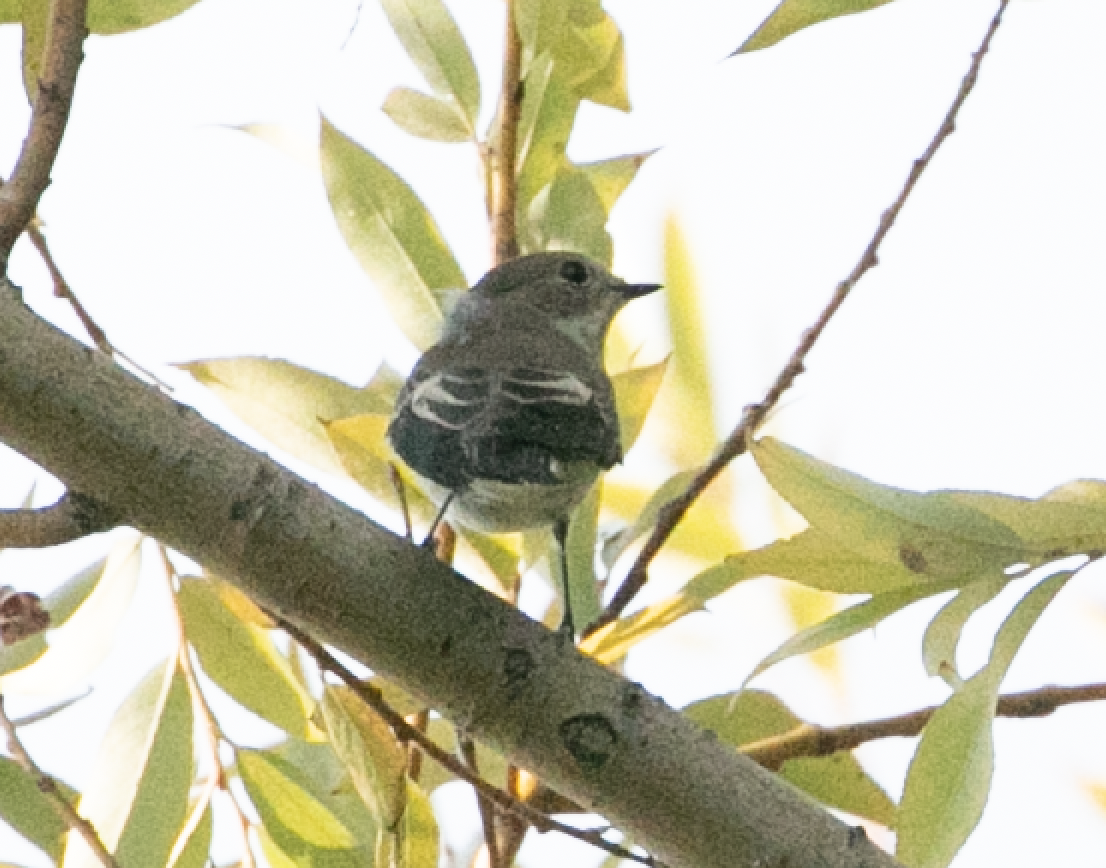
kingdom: Animalia
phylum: Chordata
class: Aves
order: Passeriformes
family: Muscicapidae
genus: Ficedula
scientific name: Ficedula hypoleuca
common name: European pied flycatcher
